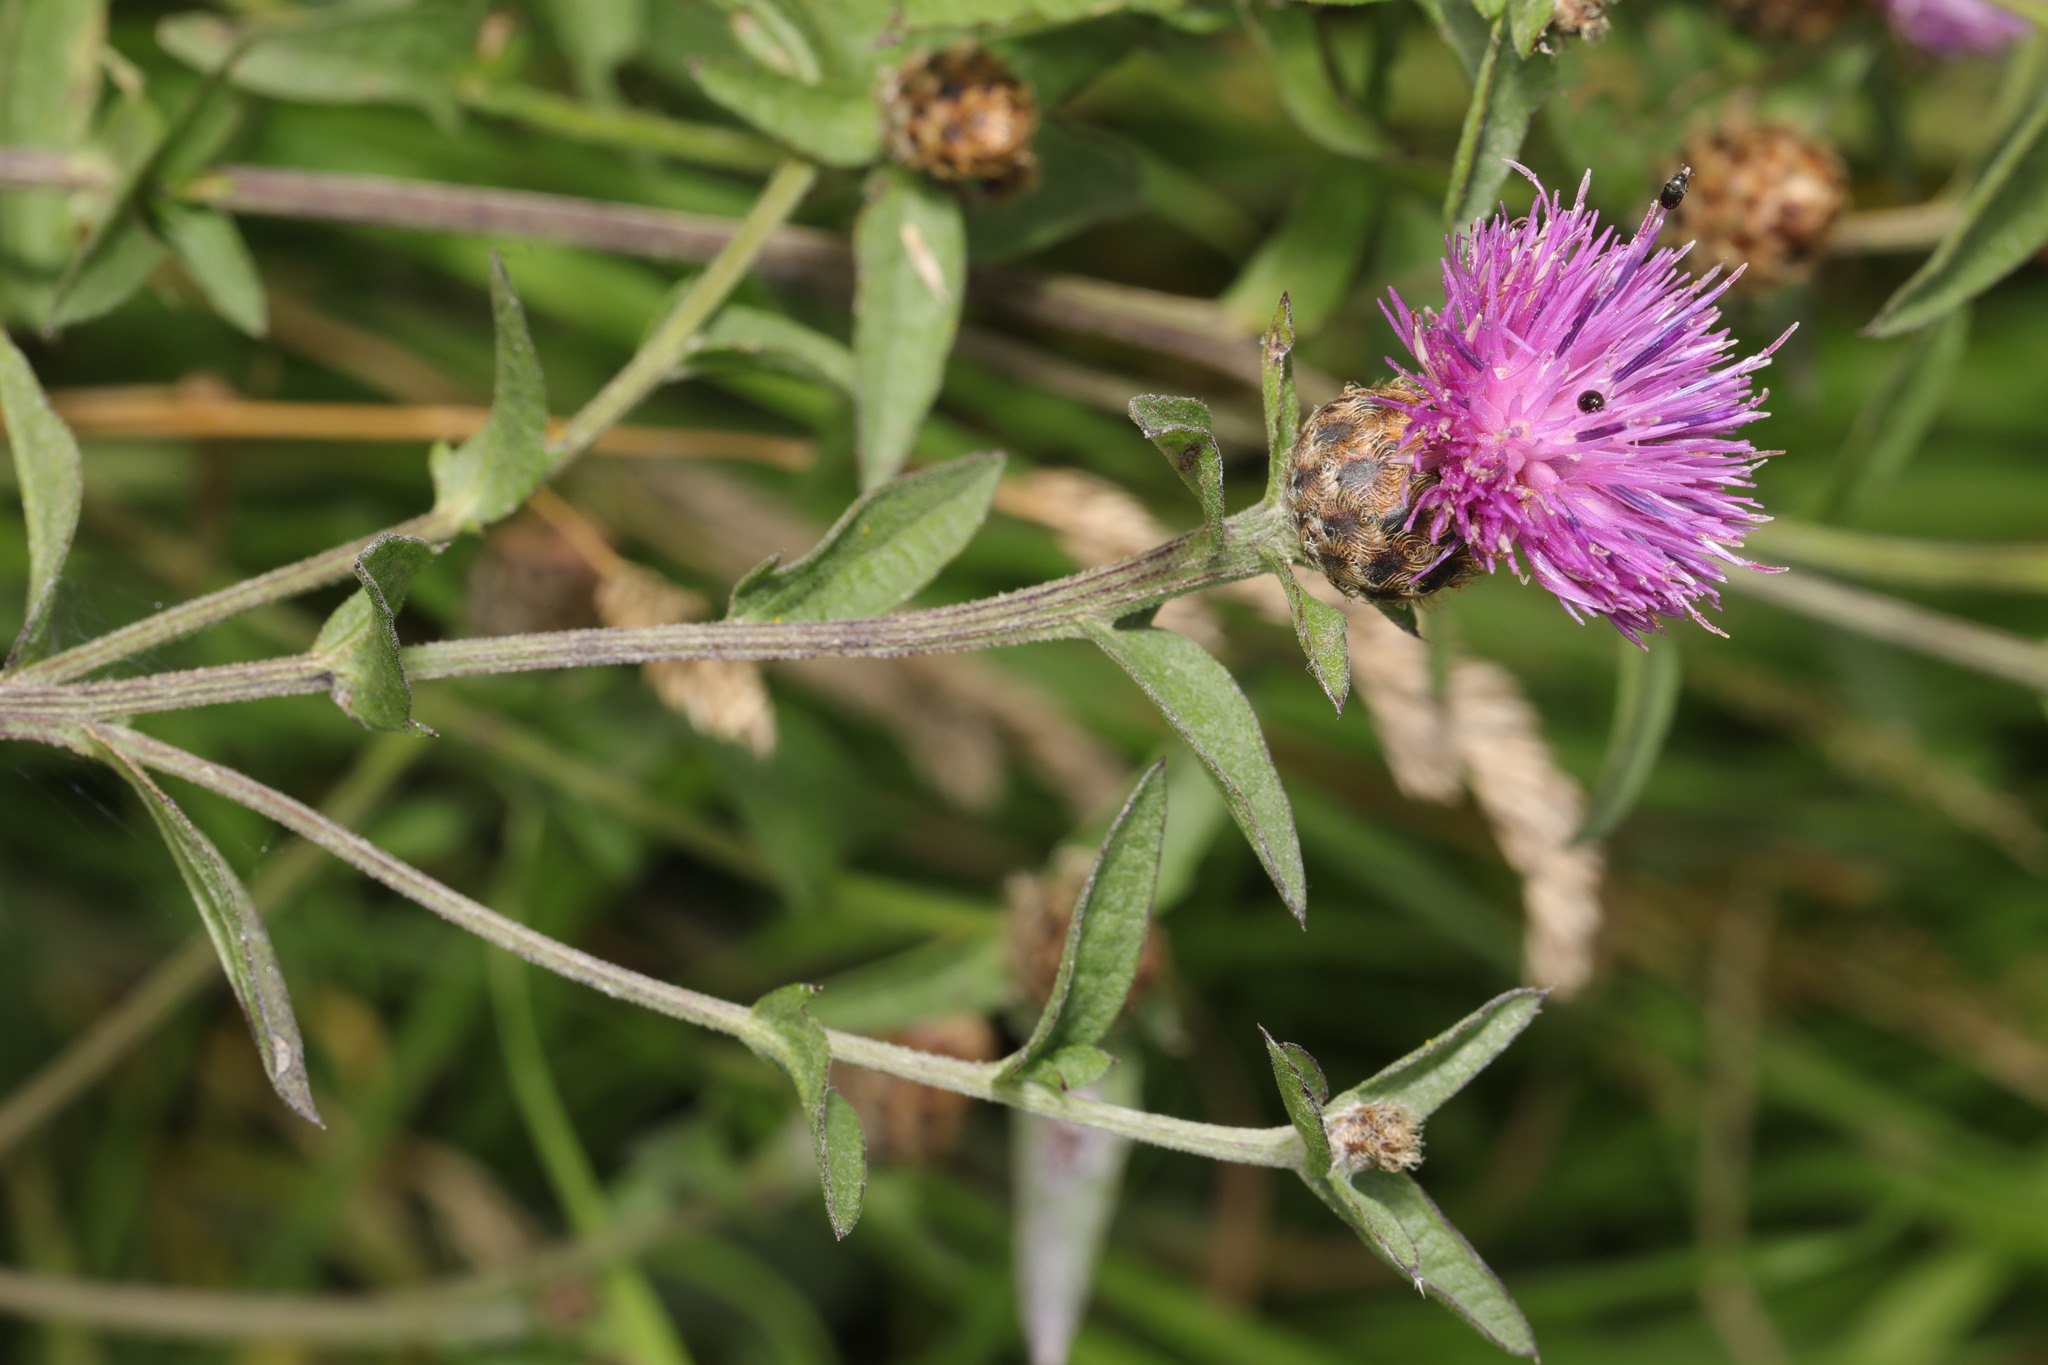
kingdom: Plantae
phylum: Tracheophyta
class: Magnoliopsida
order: Asterales
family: Asteraceae
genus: Centaurea
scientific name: Centaurea nigra
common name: Lesser knapweed
